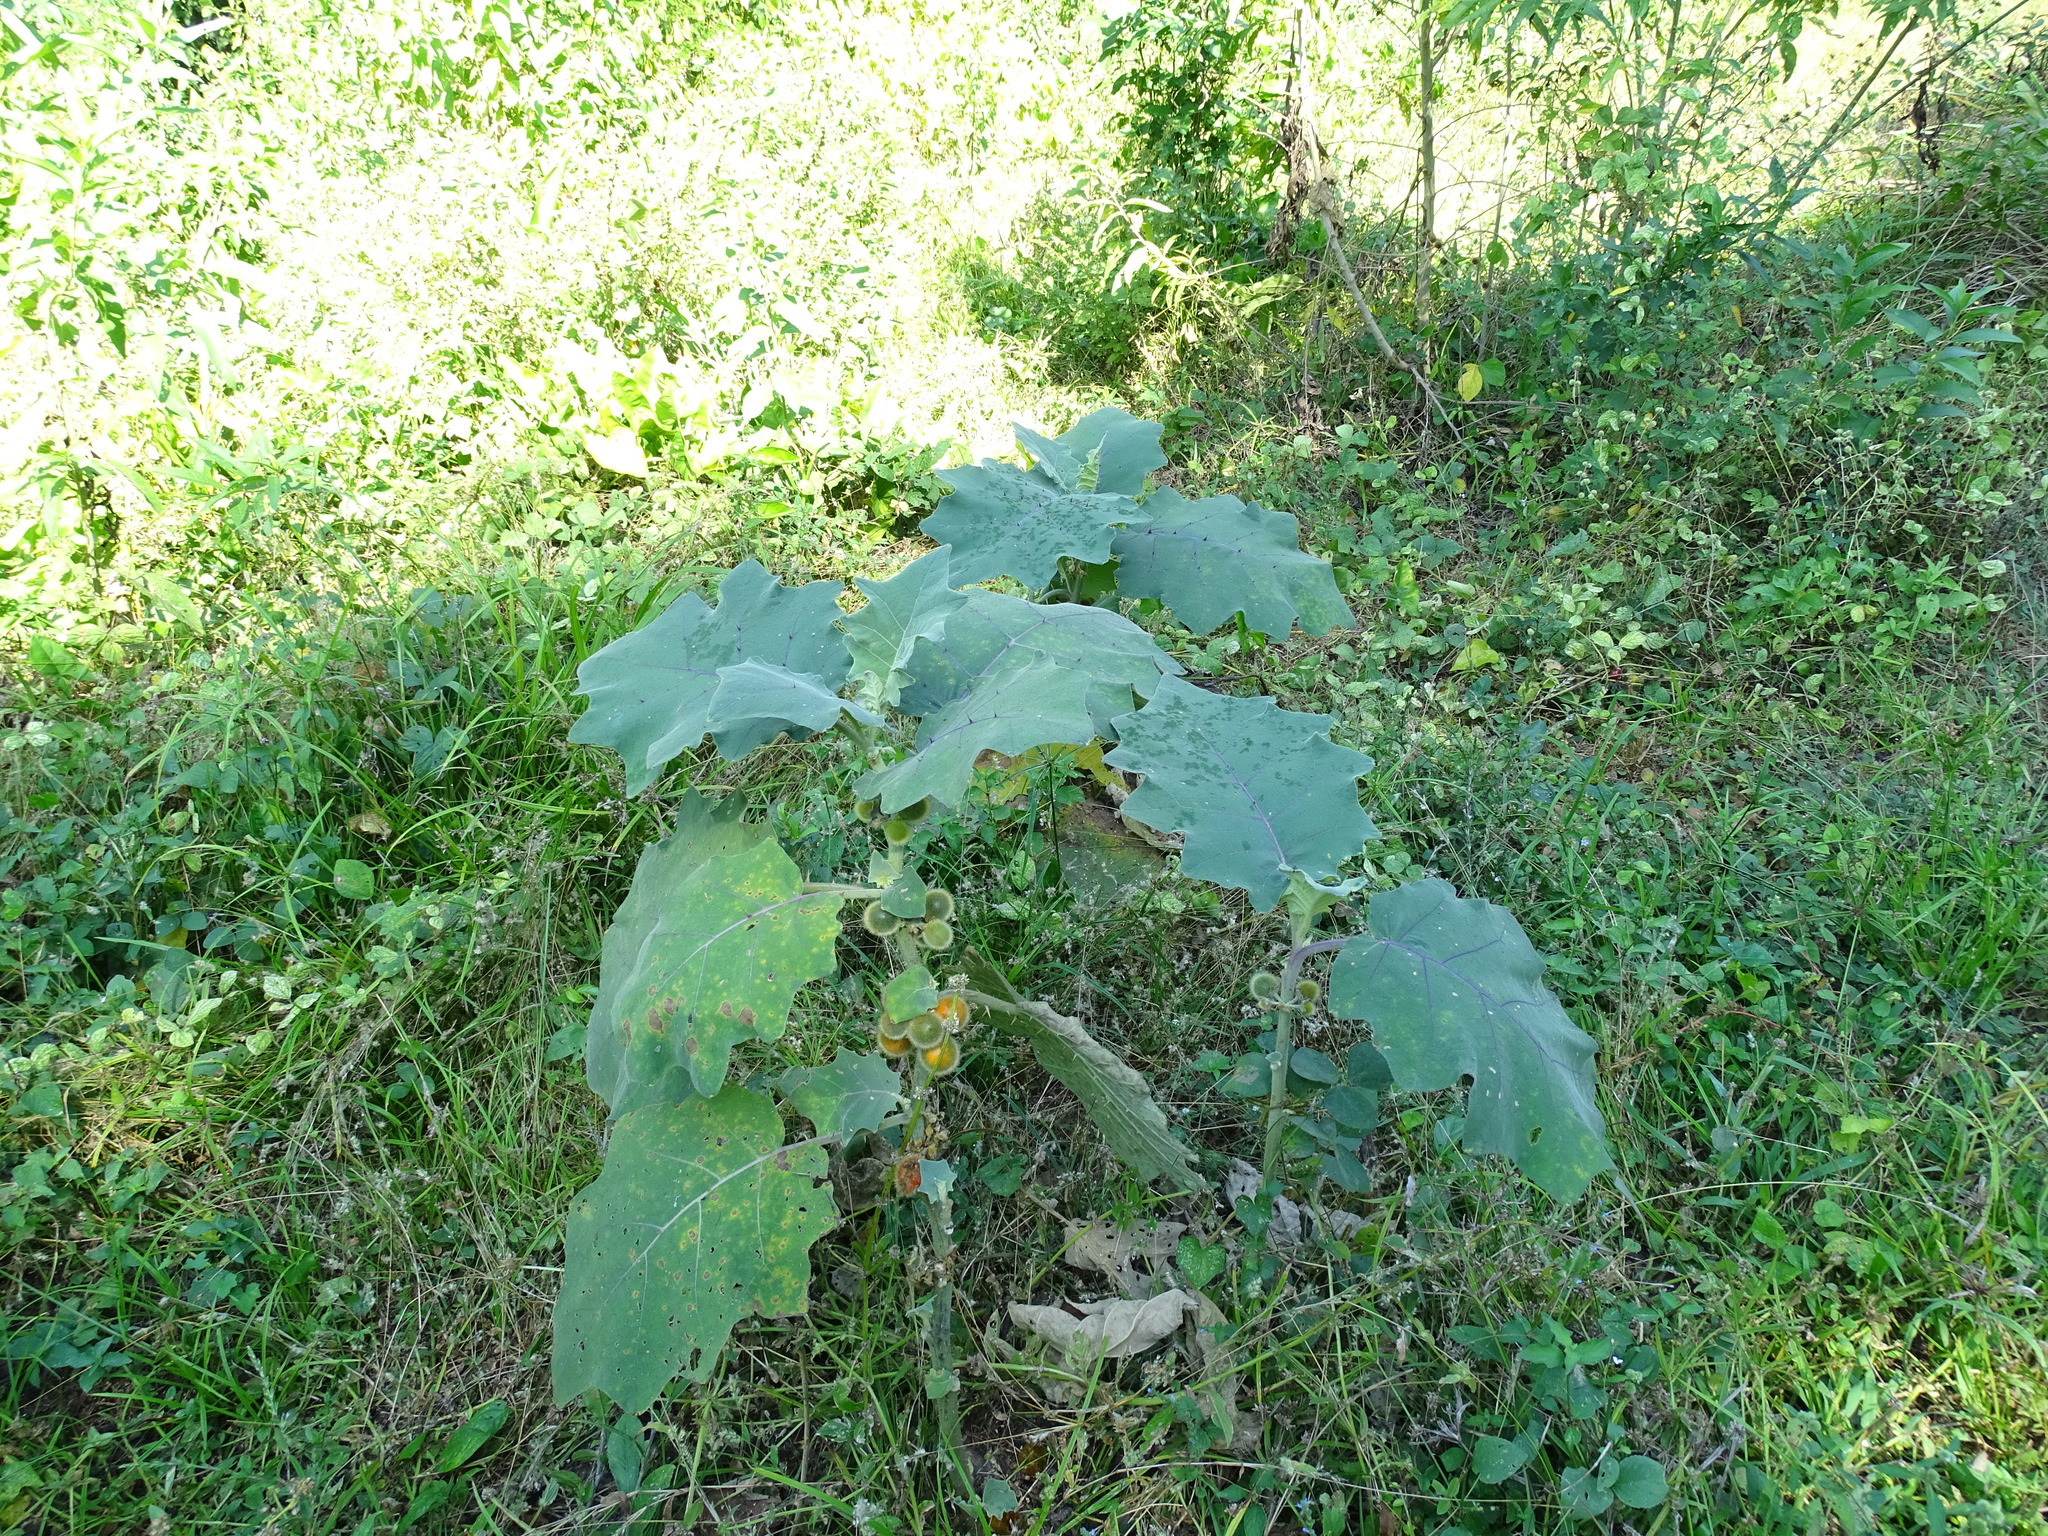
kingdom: Plantae
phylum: Tracheophyta
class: Magnoliopsida
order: Solanales
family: Solanaceae
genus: Solanum
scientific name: Solanum hirtum
